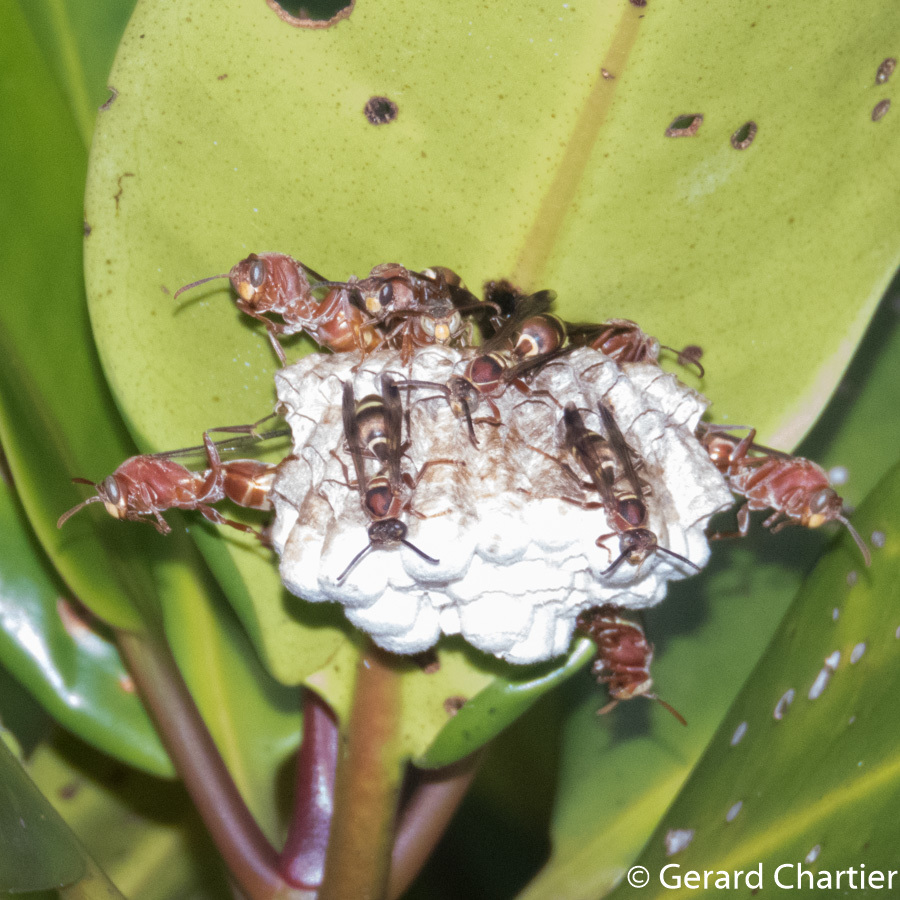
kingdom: Animalia
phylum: Arthropoda
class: Insecta
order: Hymenoptera
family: Eumenidae
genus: Polistes
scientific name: Polistes stigma
